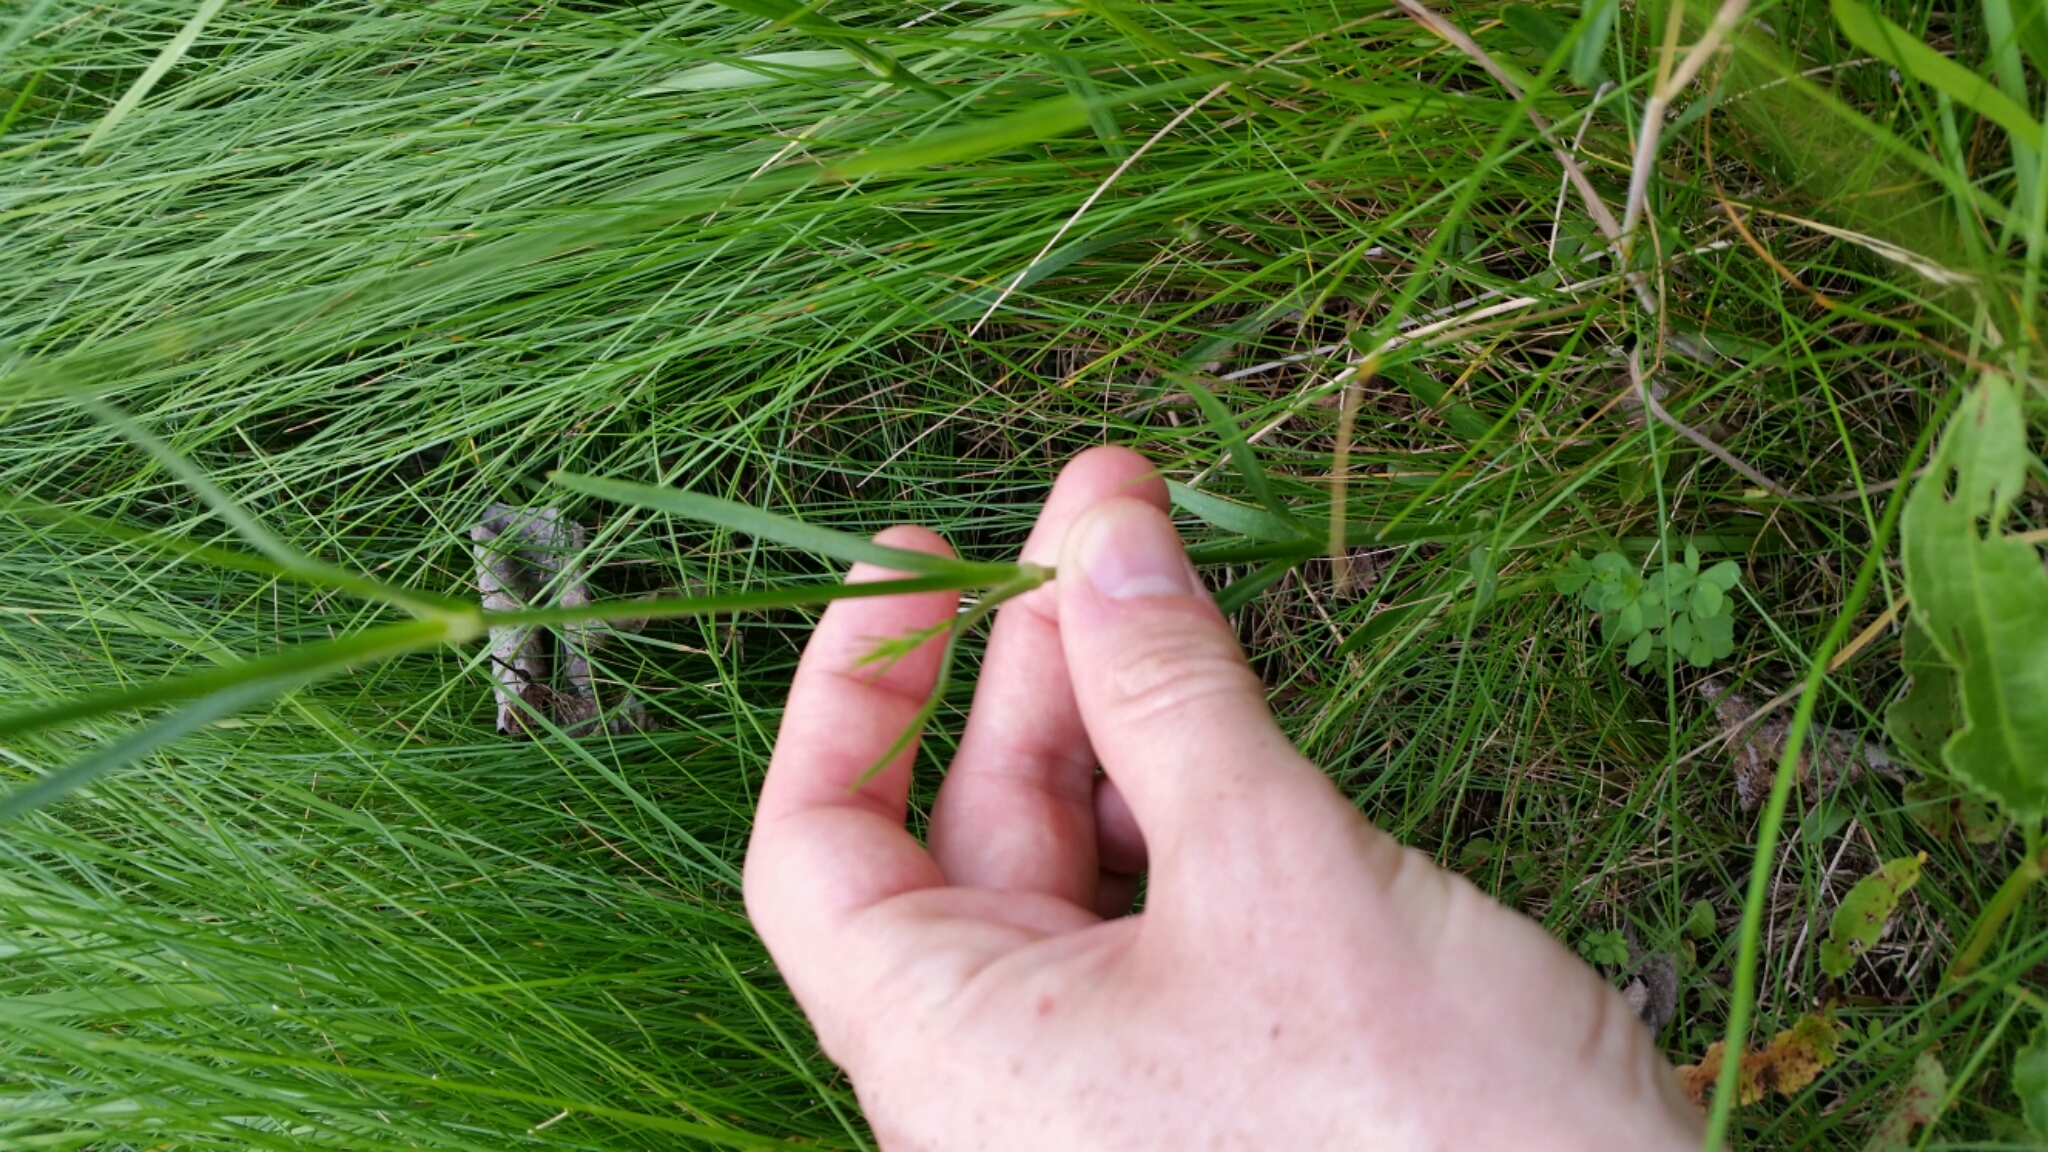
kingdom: Plantae
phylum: Tracheophyta
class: Magnoliopsida
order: Caryophyllales
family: Caryophyllaceae
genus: Dianthus
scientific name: Dianthus armeria
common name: Deptford pink
